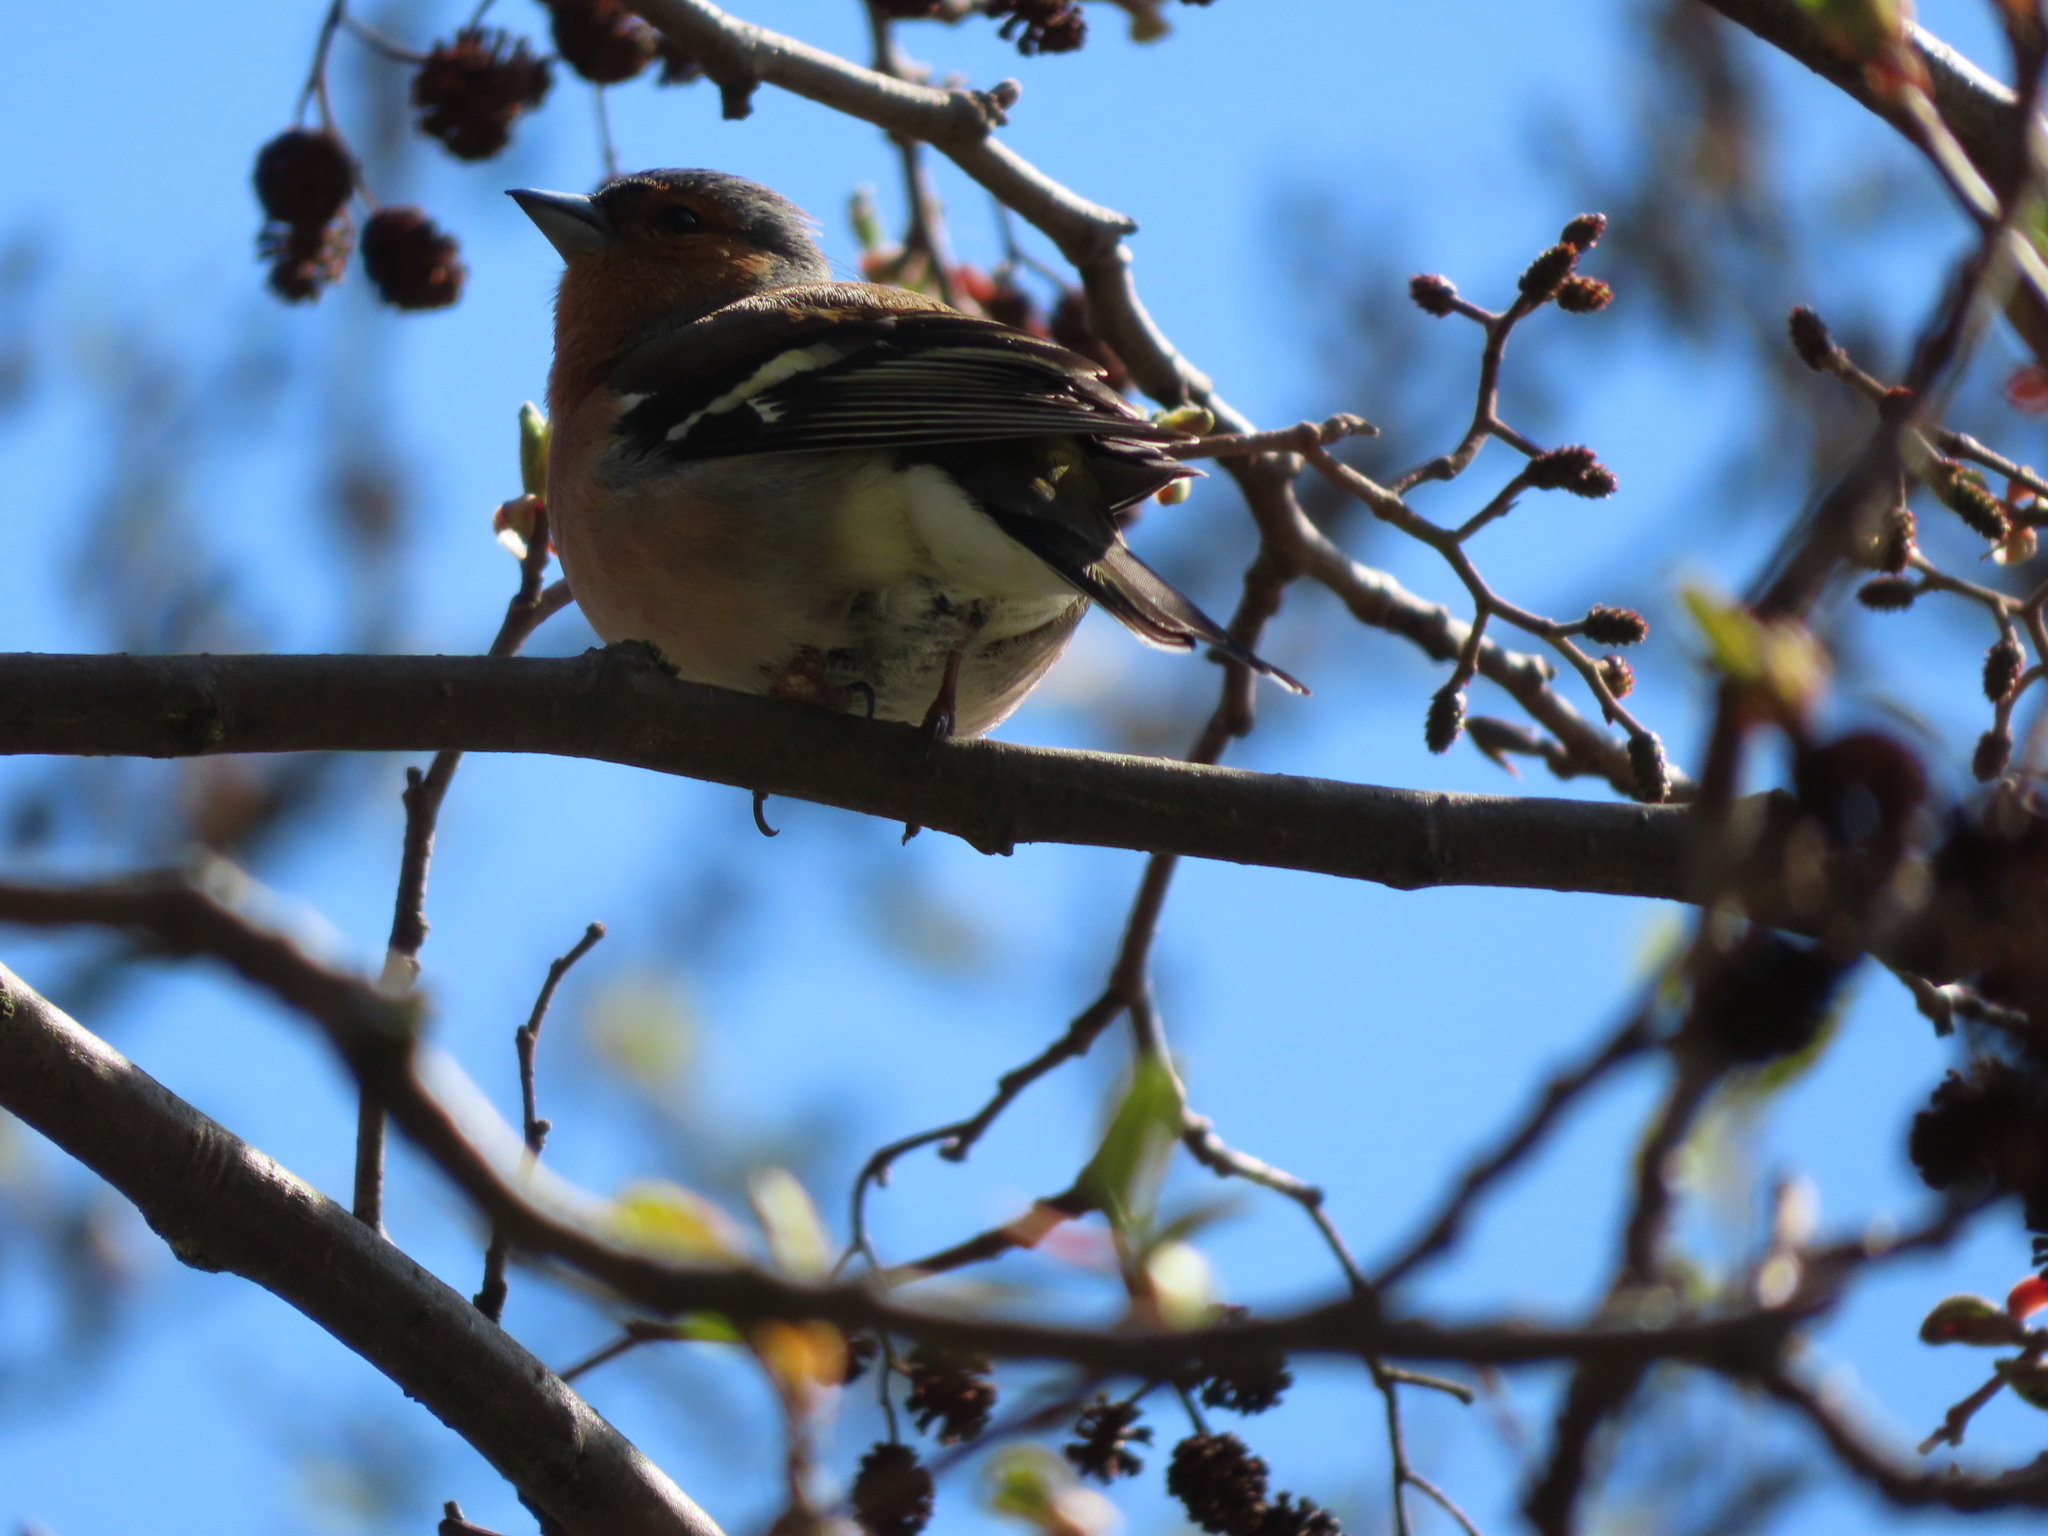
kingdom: Animalia
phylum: Chordata
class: Aves
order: Passeriformes
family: Fringillidae
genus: Fringilla
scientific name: Fringilla coelebs
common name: Common chaffinch
